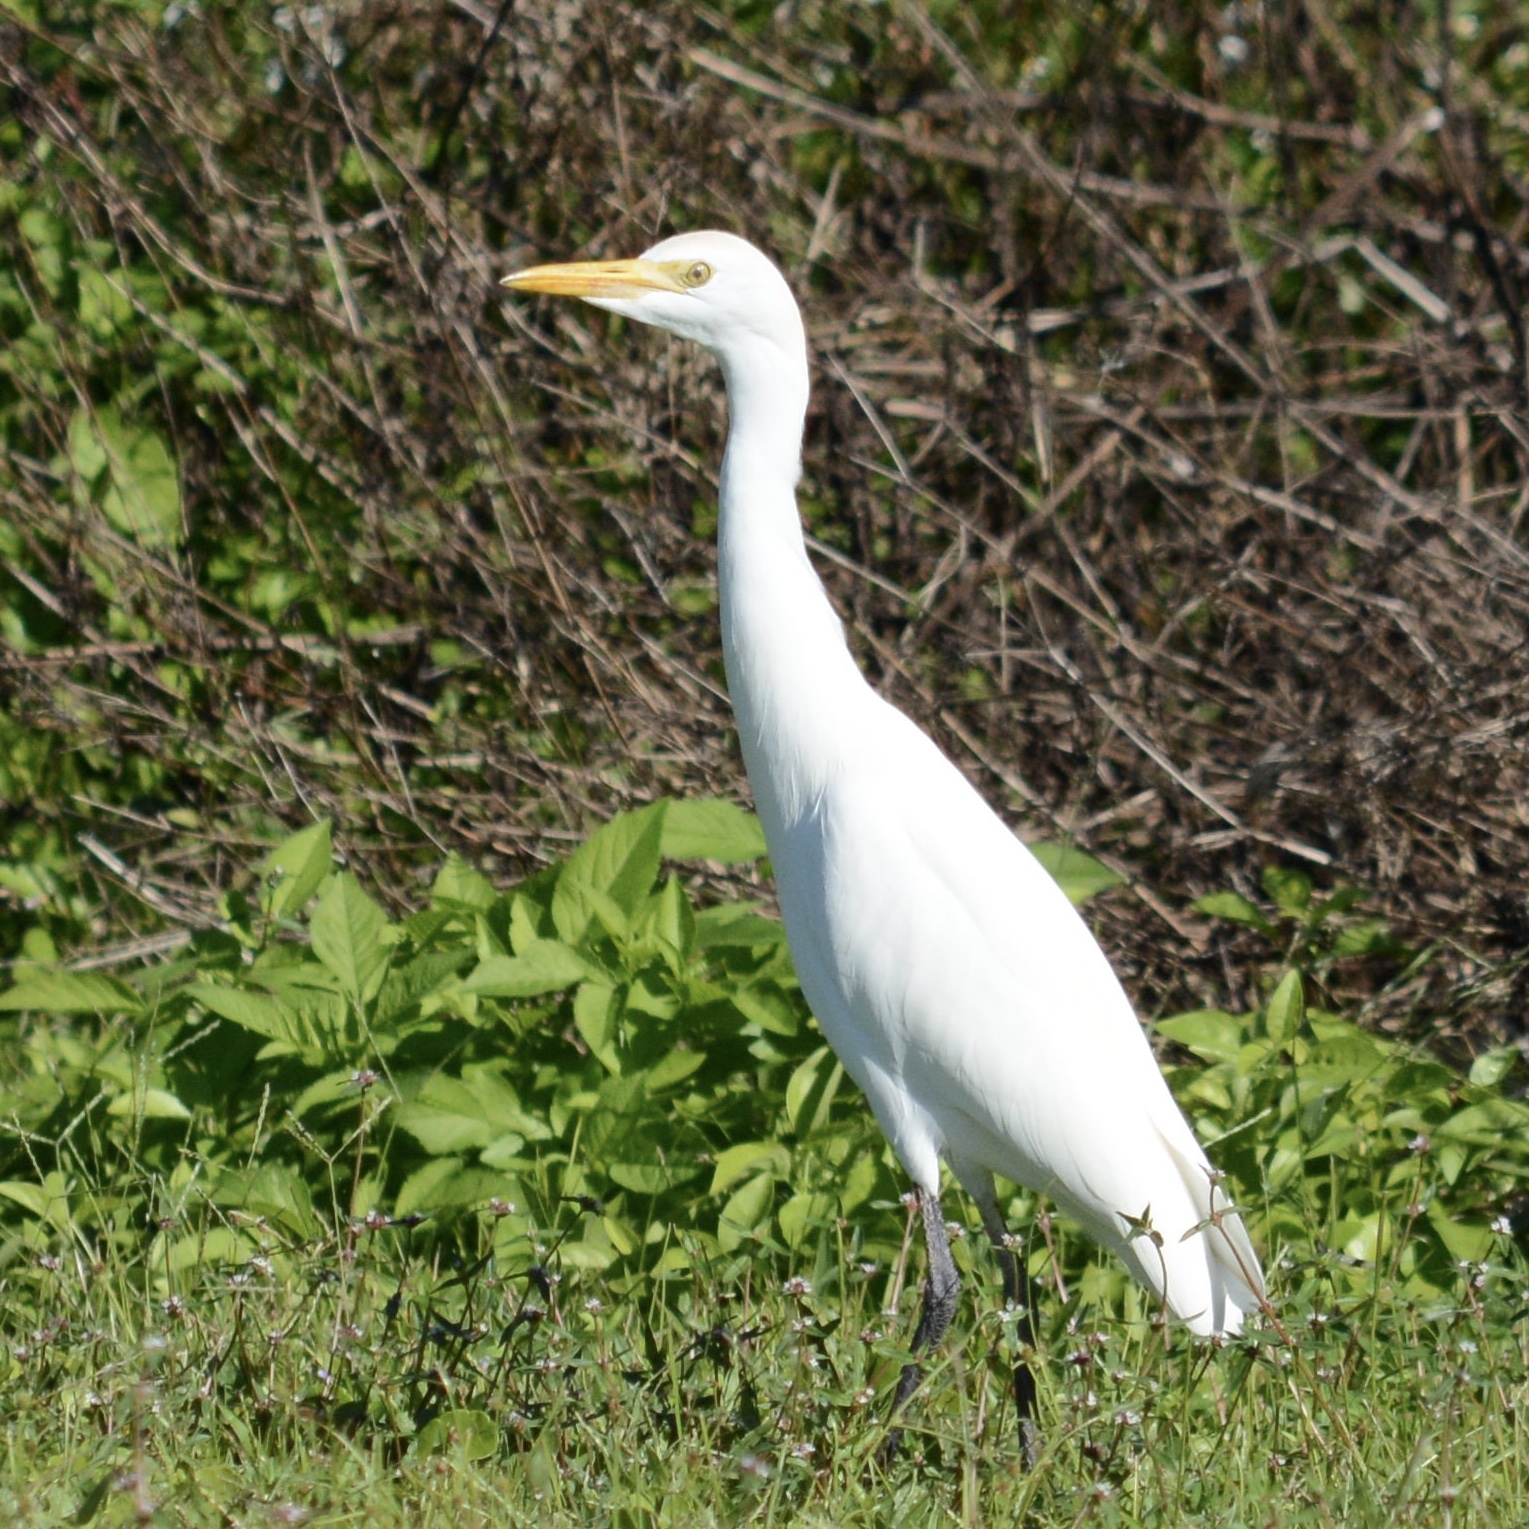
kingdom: Animalia
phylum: Chordata
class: Aves
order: Pelecaniformes
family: Ardeidae
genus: Bubulcus
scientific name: Bubulcus ibis
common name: Cattle egret
